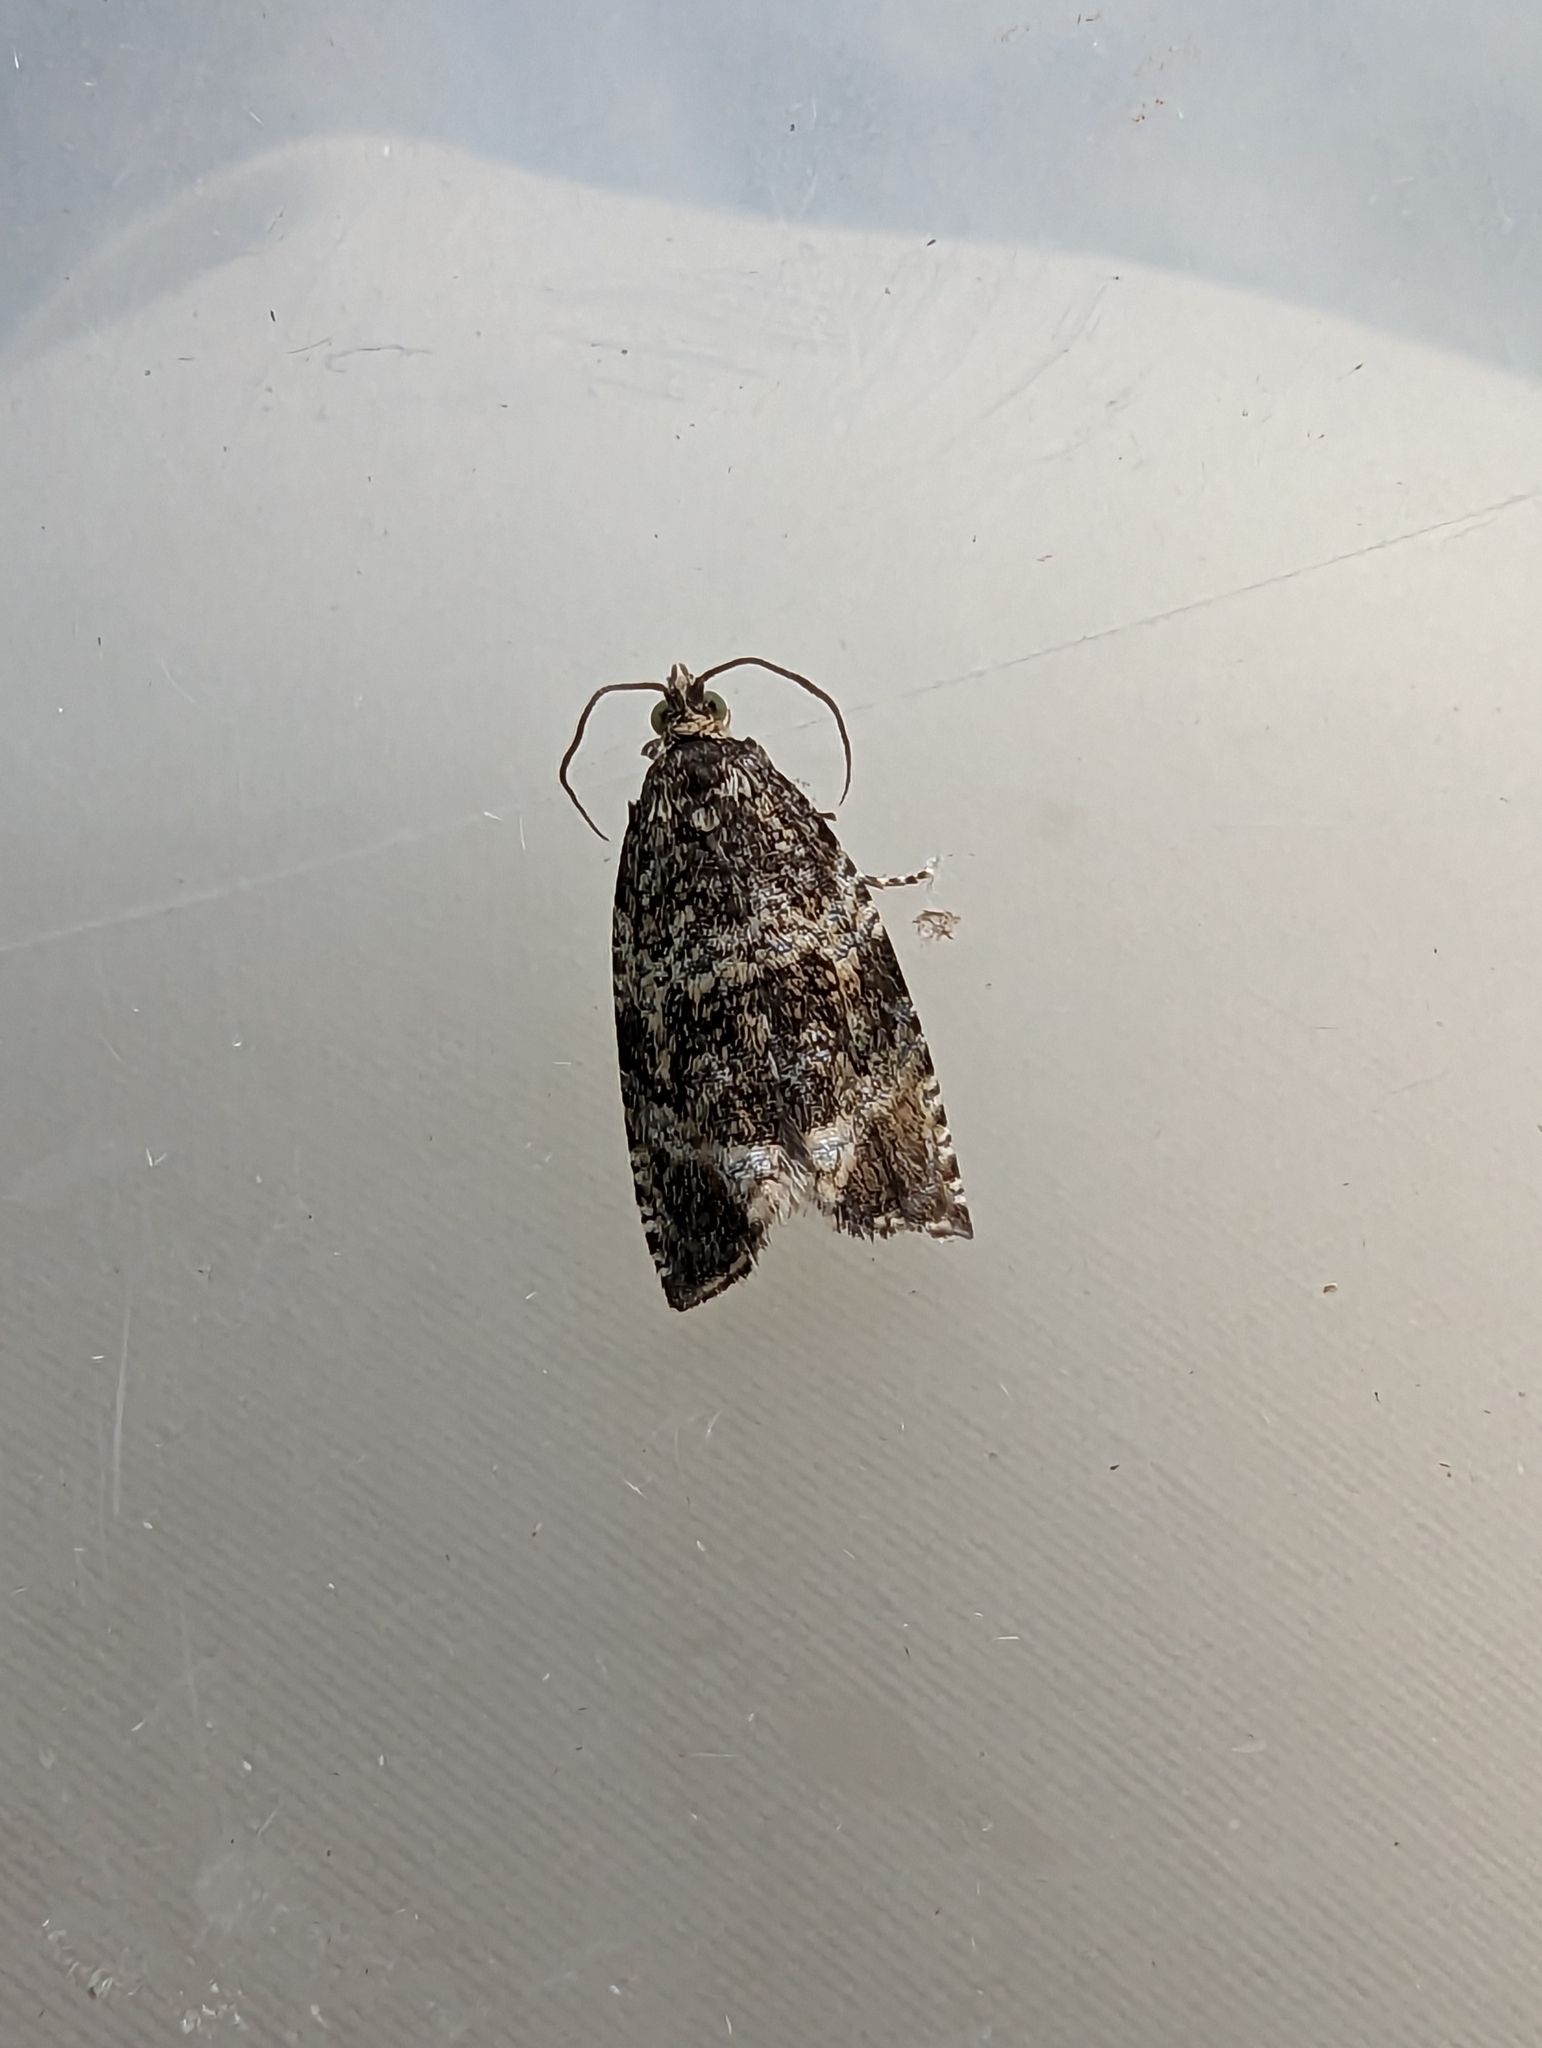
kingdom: Animalia
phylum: Arthropoda
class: Insecta
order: Lepidoptera
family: Tortricidae
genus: Syricoris
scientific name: Syricoris lacunana
